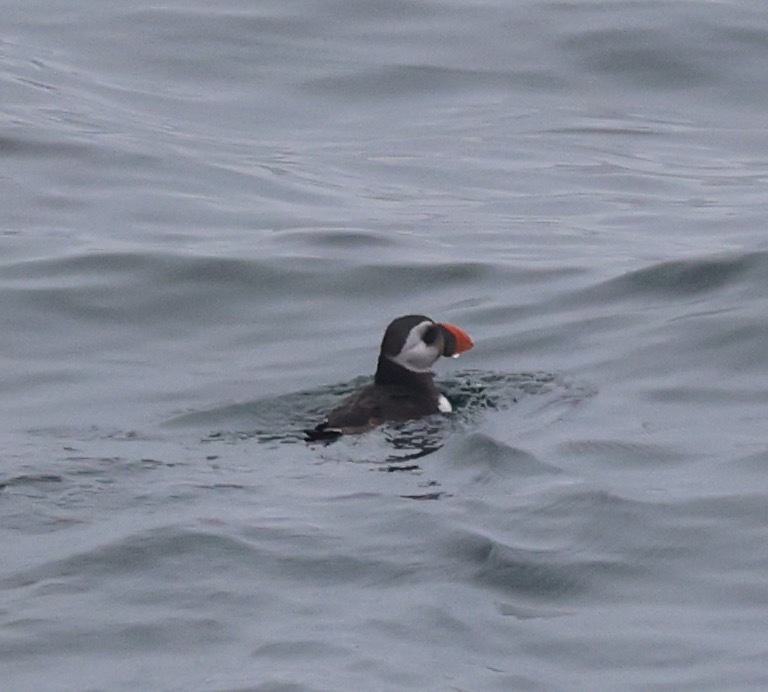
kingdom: Animalia
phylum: Chordata
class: Aves
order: Charadriiformes
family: Alcidae
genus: Fratercula
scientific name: Fratercula arctica
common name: Atlantic puffin
